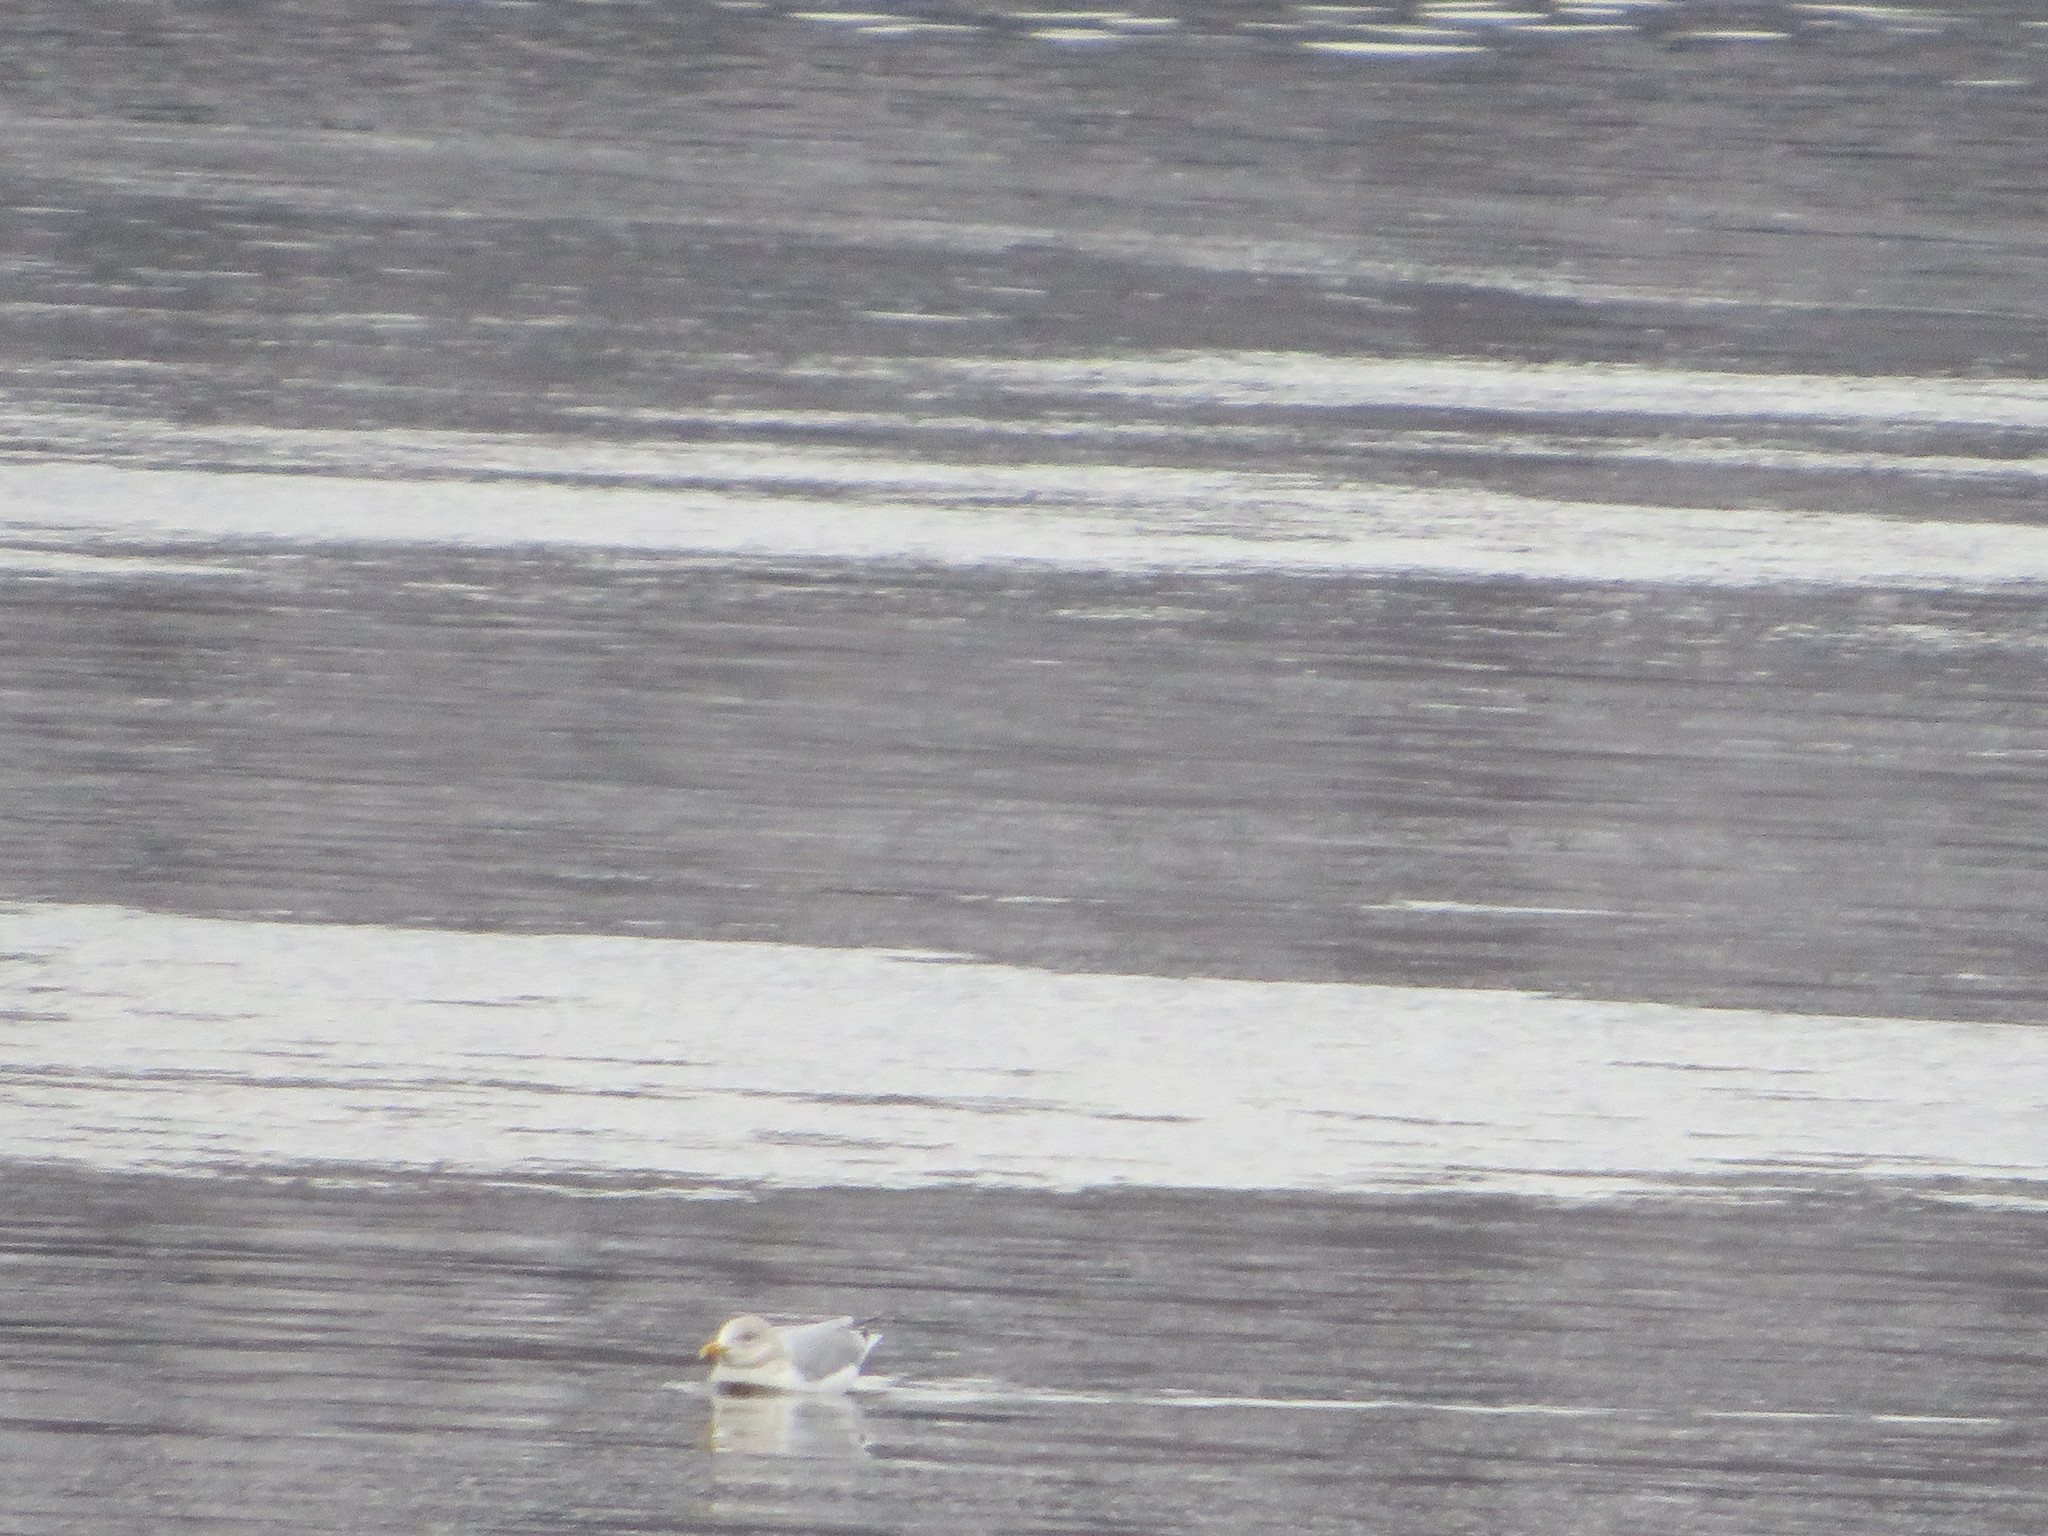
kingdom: Animalia
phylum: Chordata
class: Aves
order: Charadriiformes
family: Laridae
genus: Larus
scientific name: Larus argentatus
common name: Herring gull
